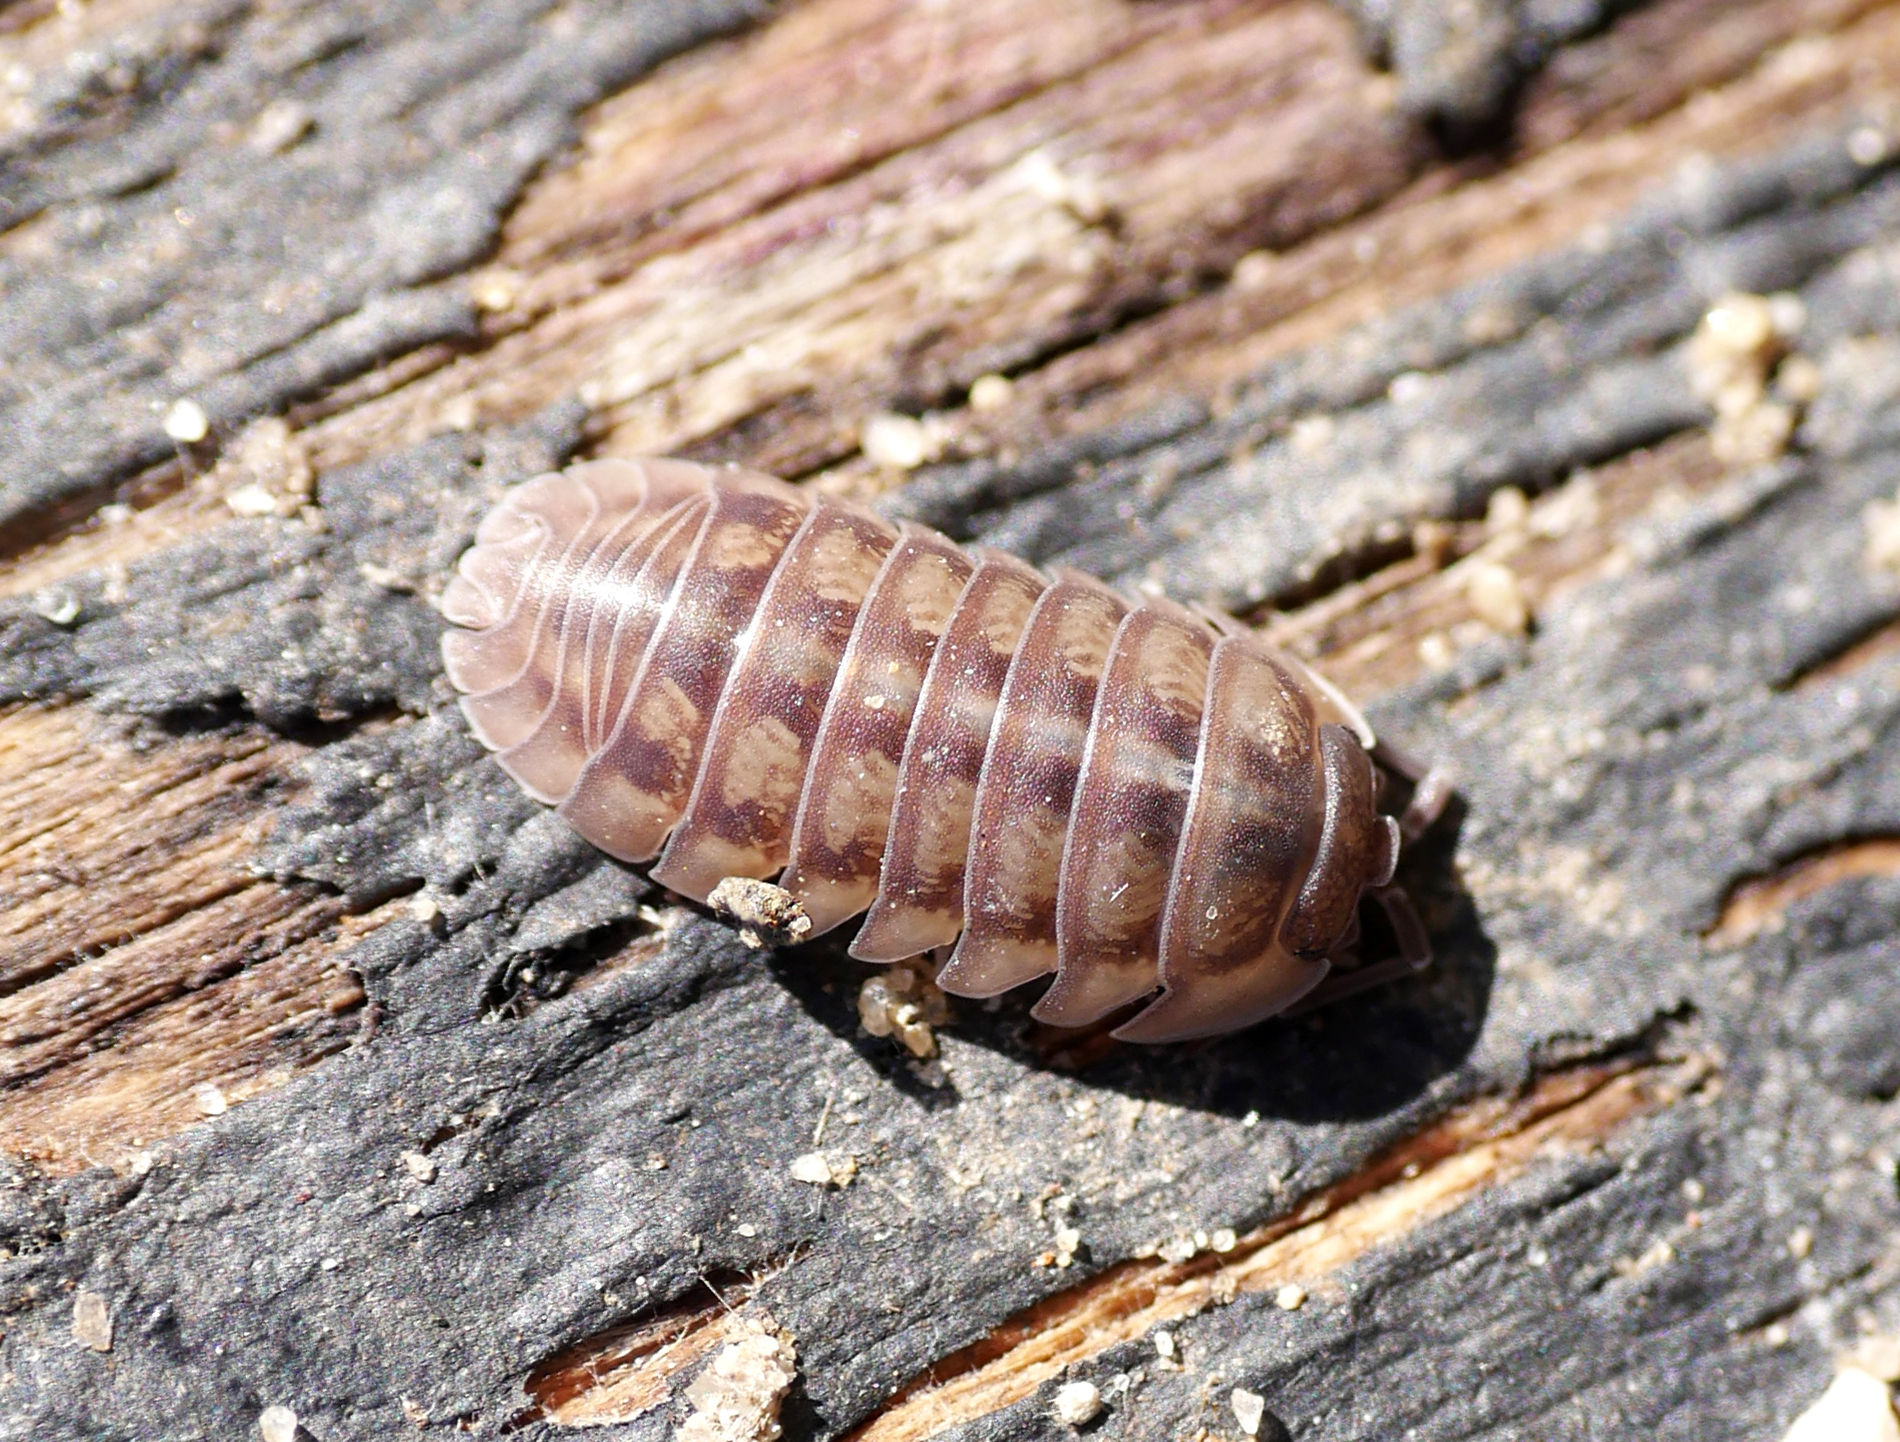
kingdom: Animalia
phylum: Arthropoda
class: Malacostraca
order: Isopoda
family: Armadillidiidae
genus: Armadillidium
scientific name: Armadillidium nasatum
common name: Isopod
